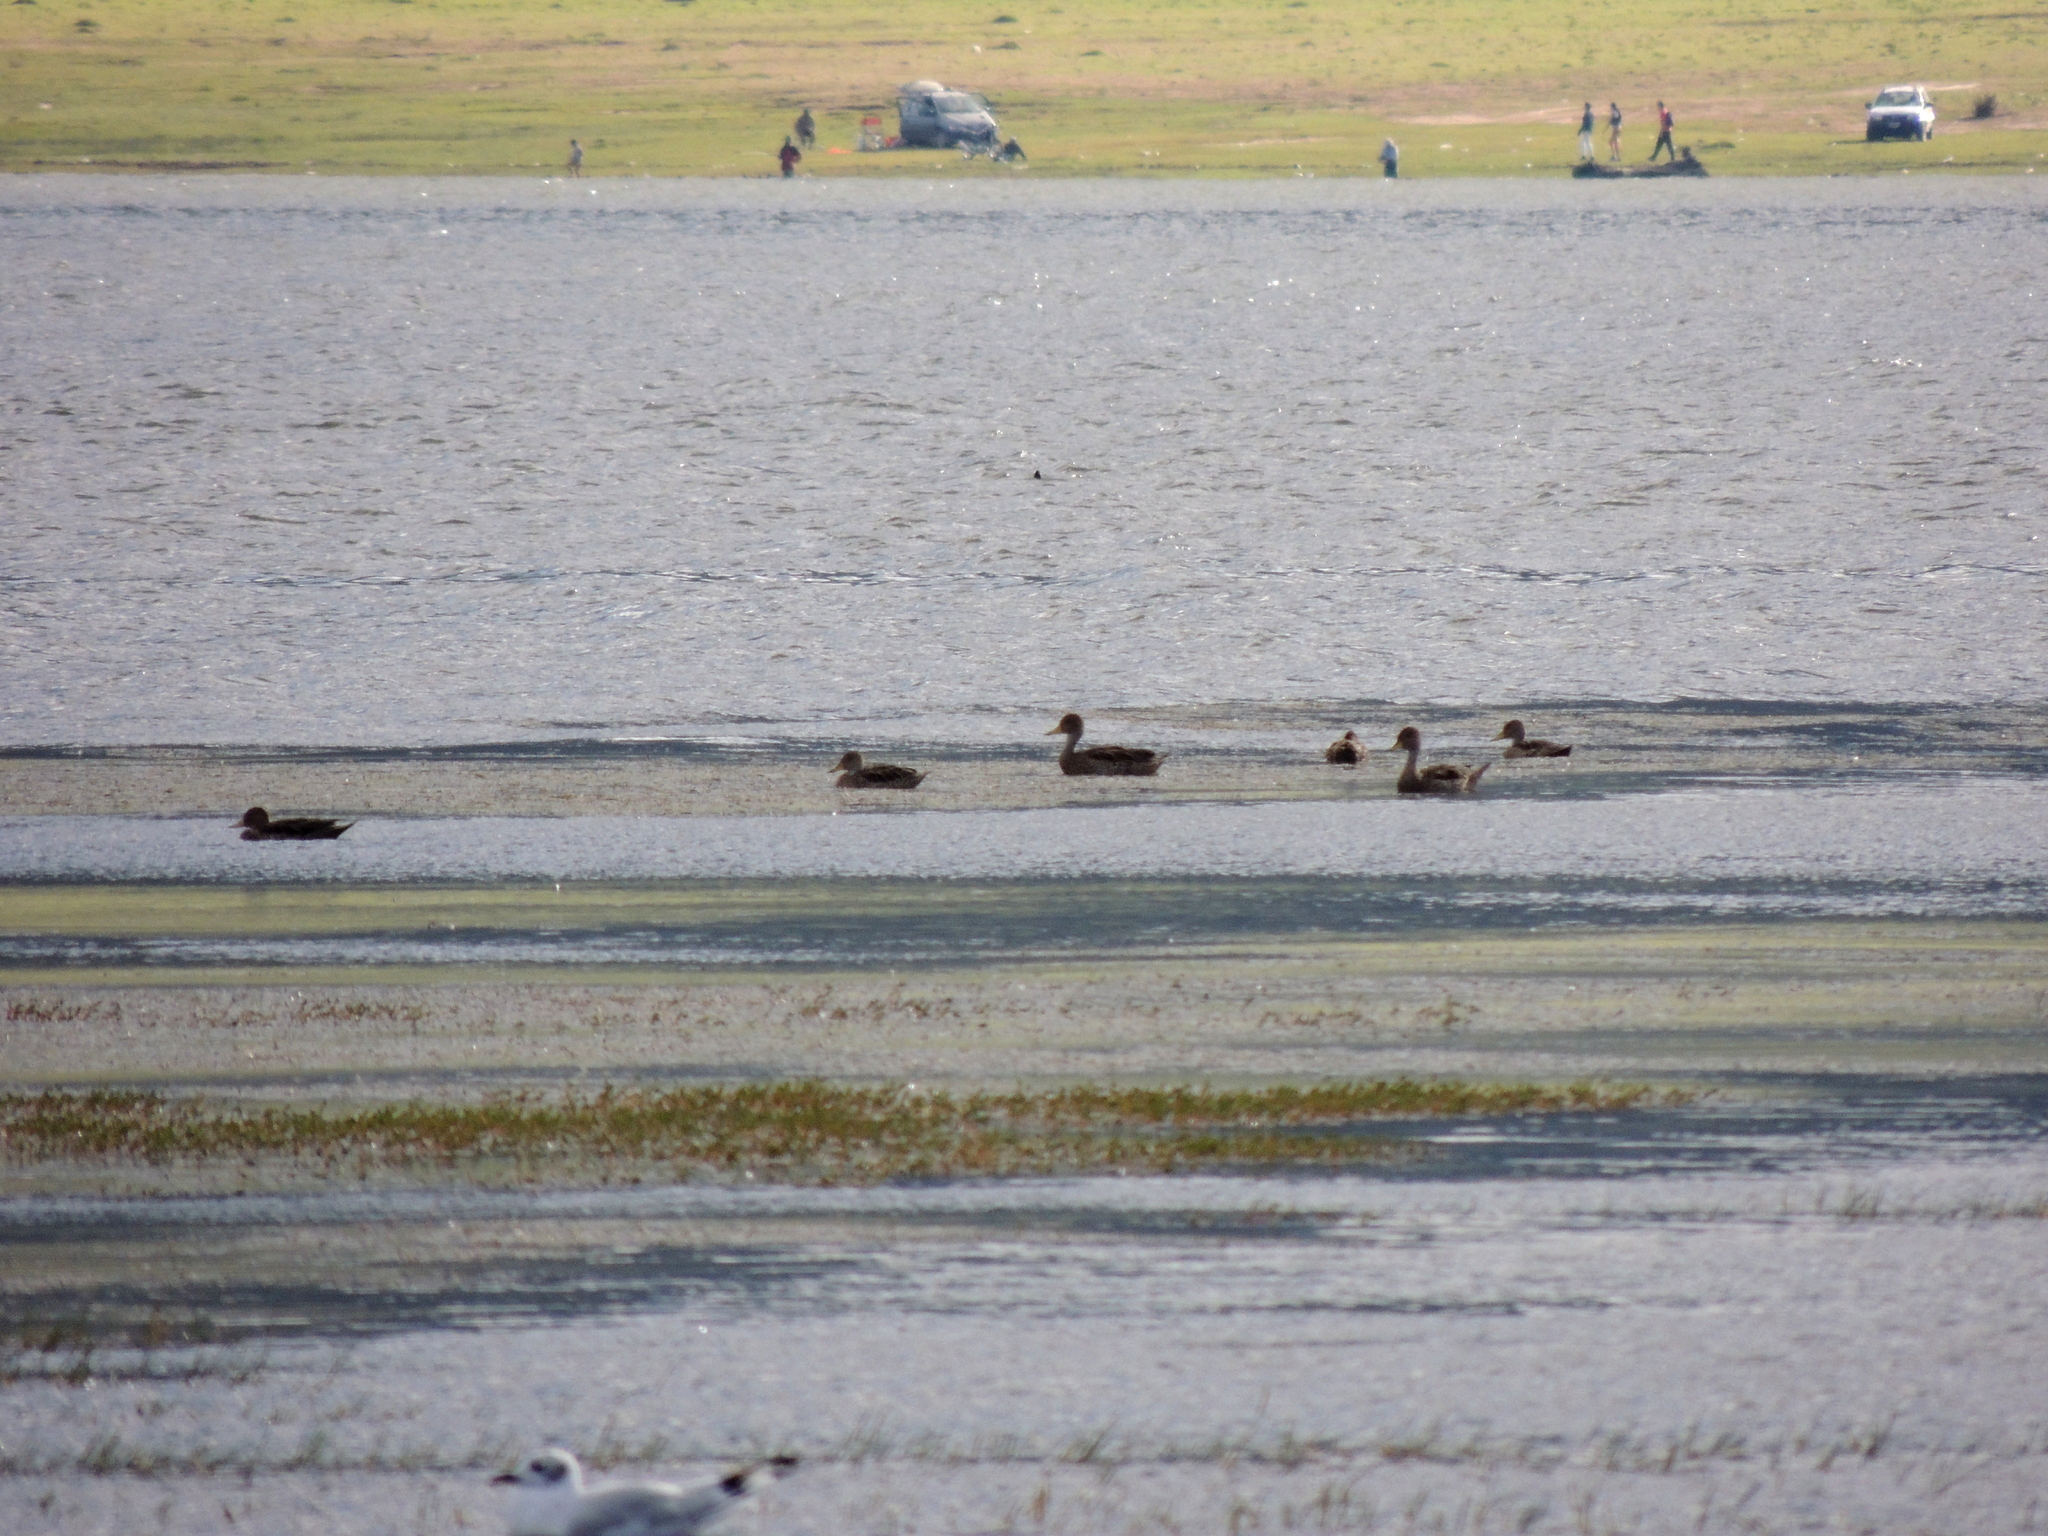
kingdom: Animalia
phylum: Chordata
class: Aves
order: Anseriformes
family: Anatidae
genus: Anas
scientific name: Anas georgica
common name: Yellow-billed pintail
